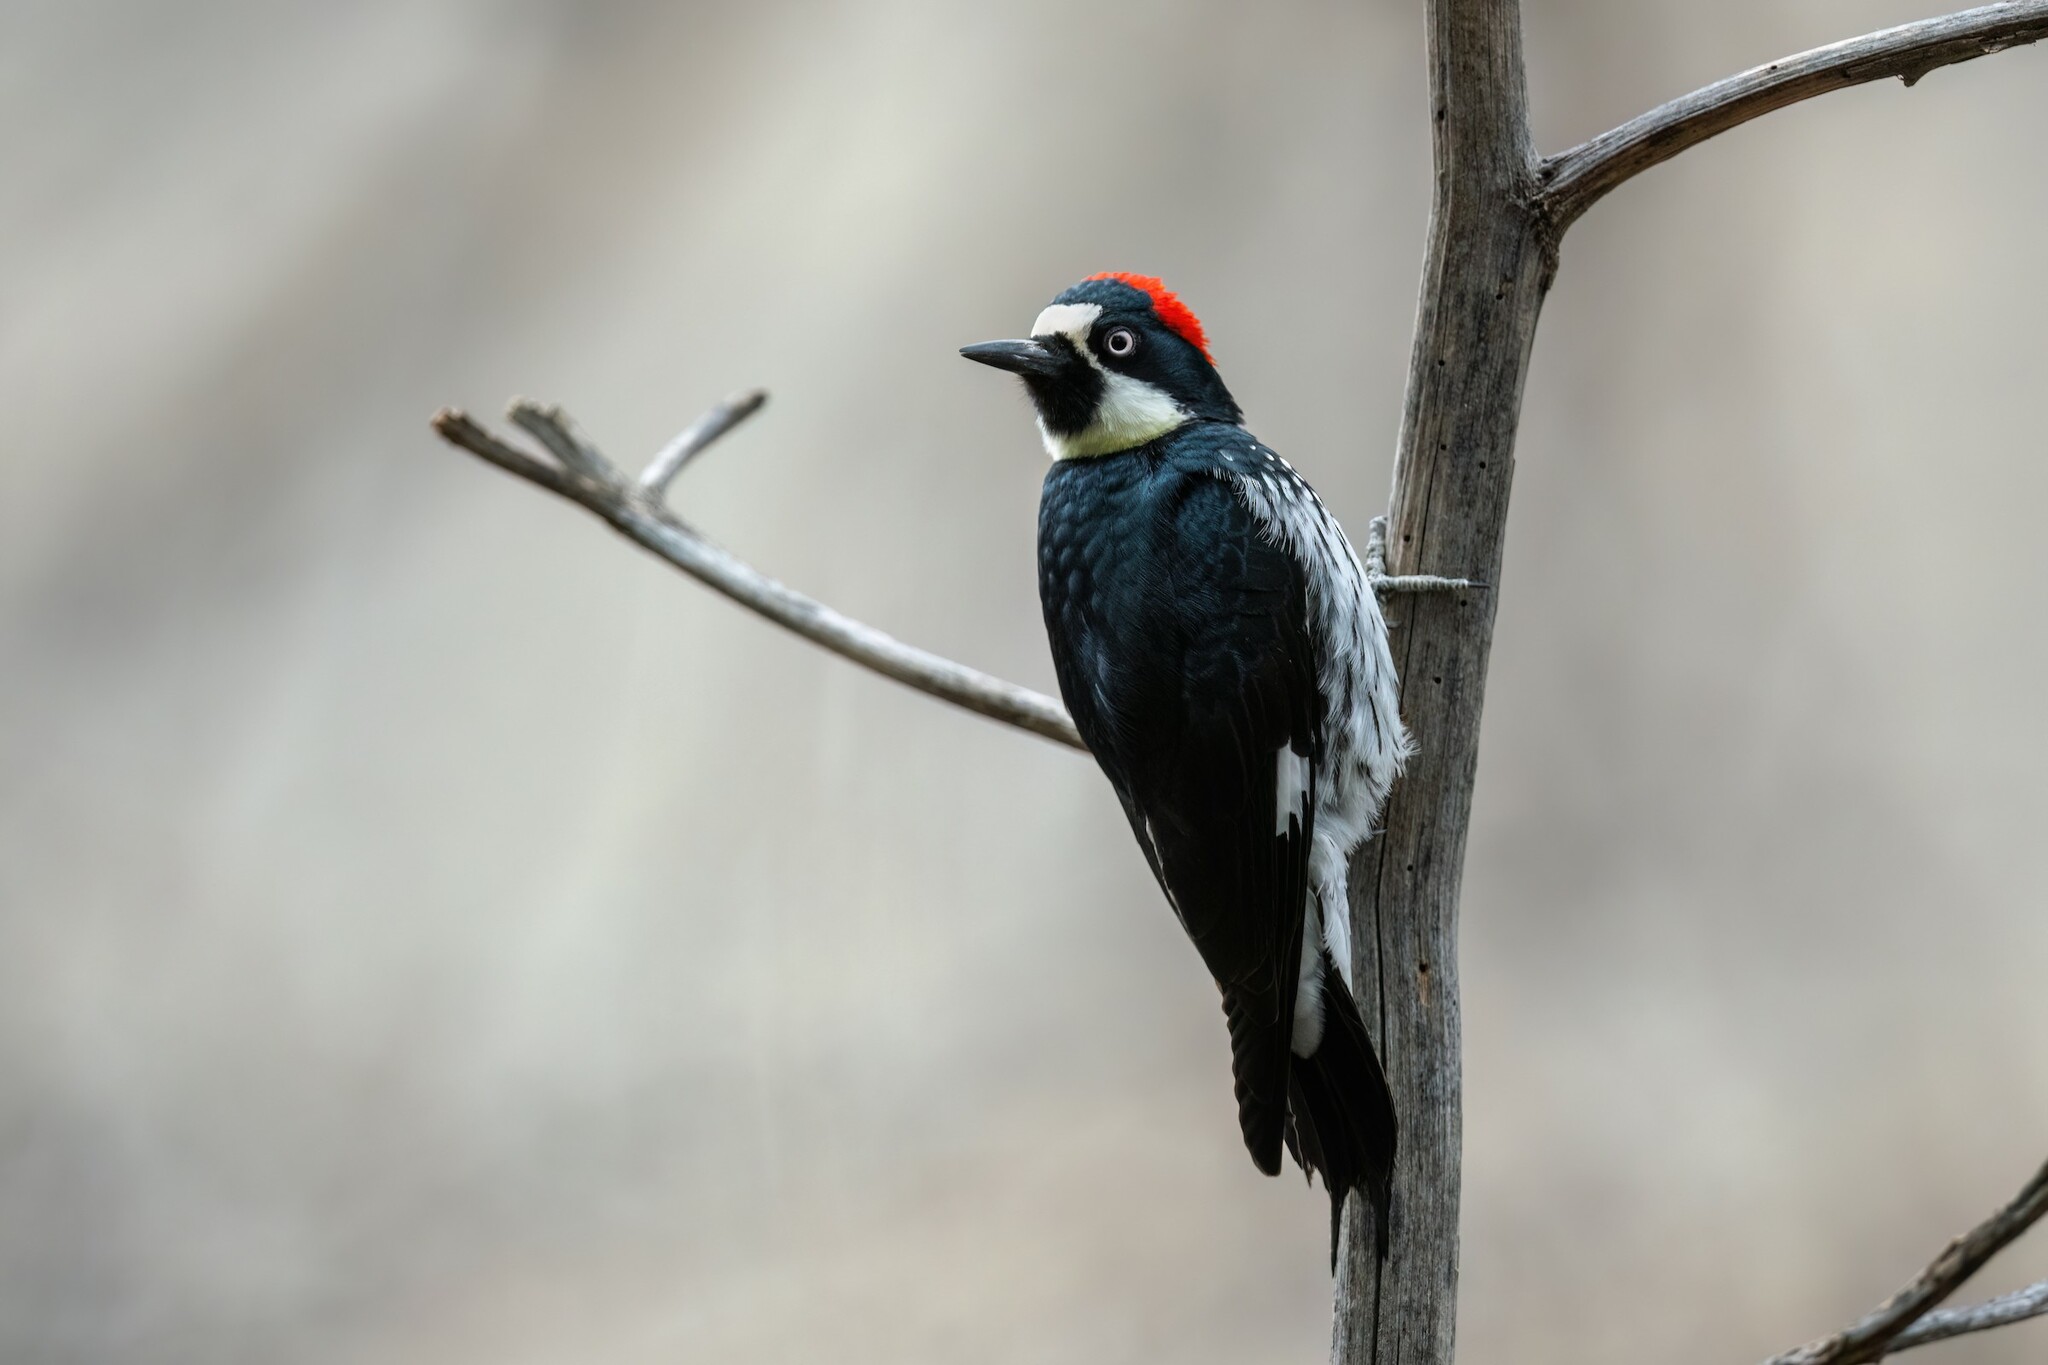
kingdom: Animalia
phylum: Chordata
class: Aves
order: Piciformes
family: Picidae
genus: Melanerpes
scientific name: Melanerpes formicivorus
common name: Acorn woodpecker
